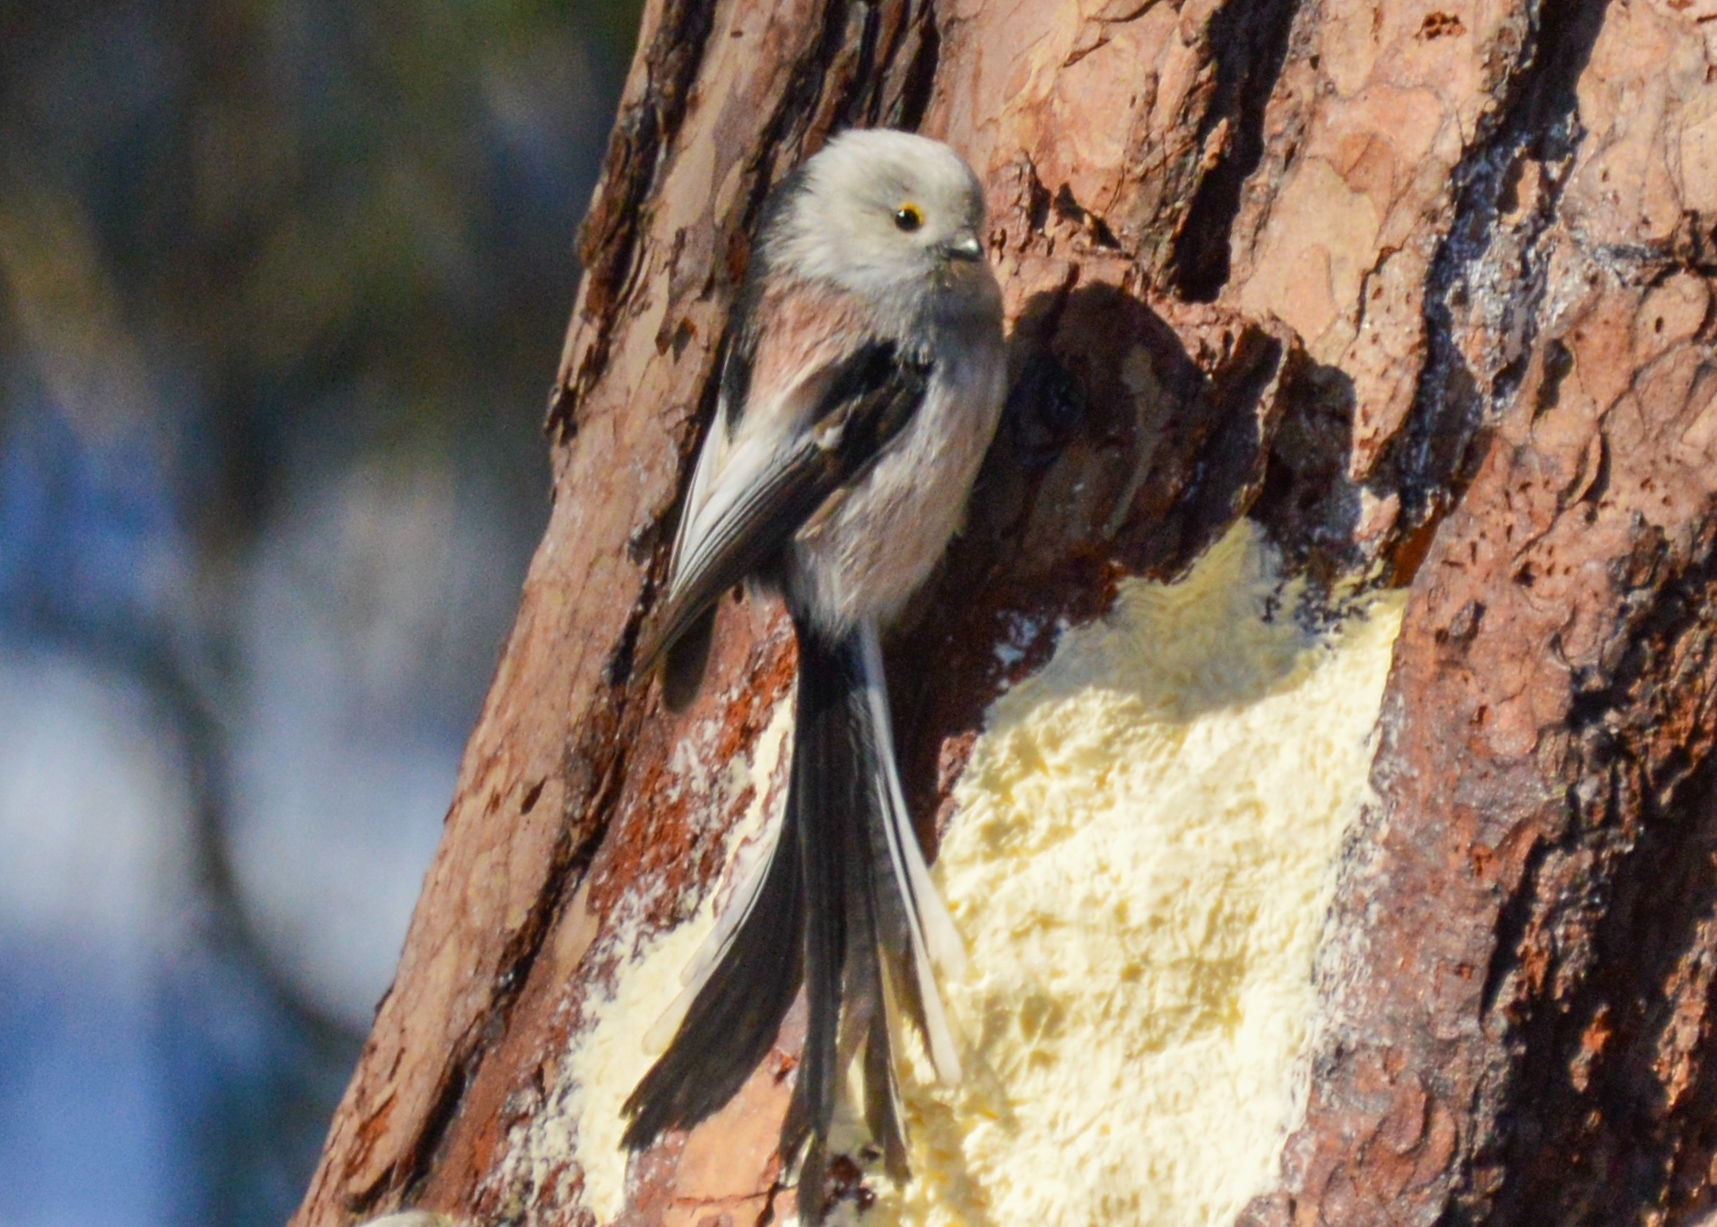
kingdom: Animalia
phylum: Chordata
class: Aves
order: Passeriformes
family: Aegithalidae
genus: Aegithalos
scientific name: Aegithalos caudatus
